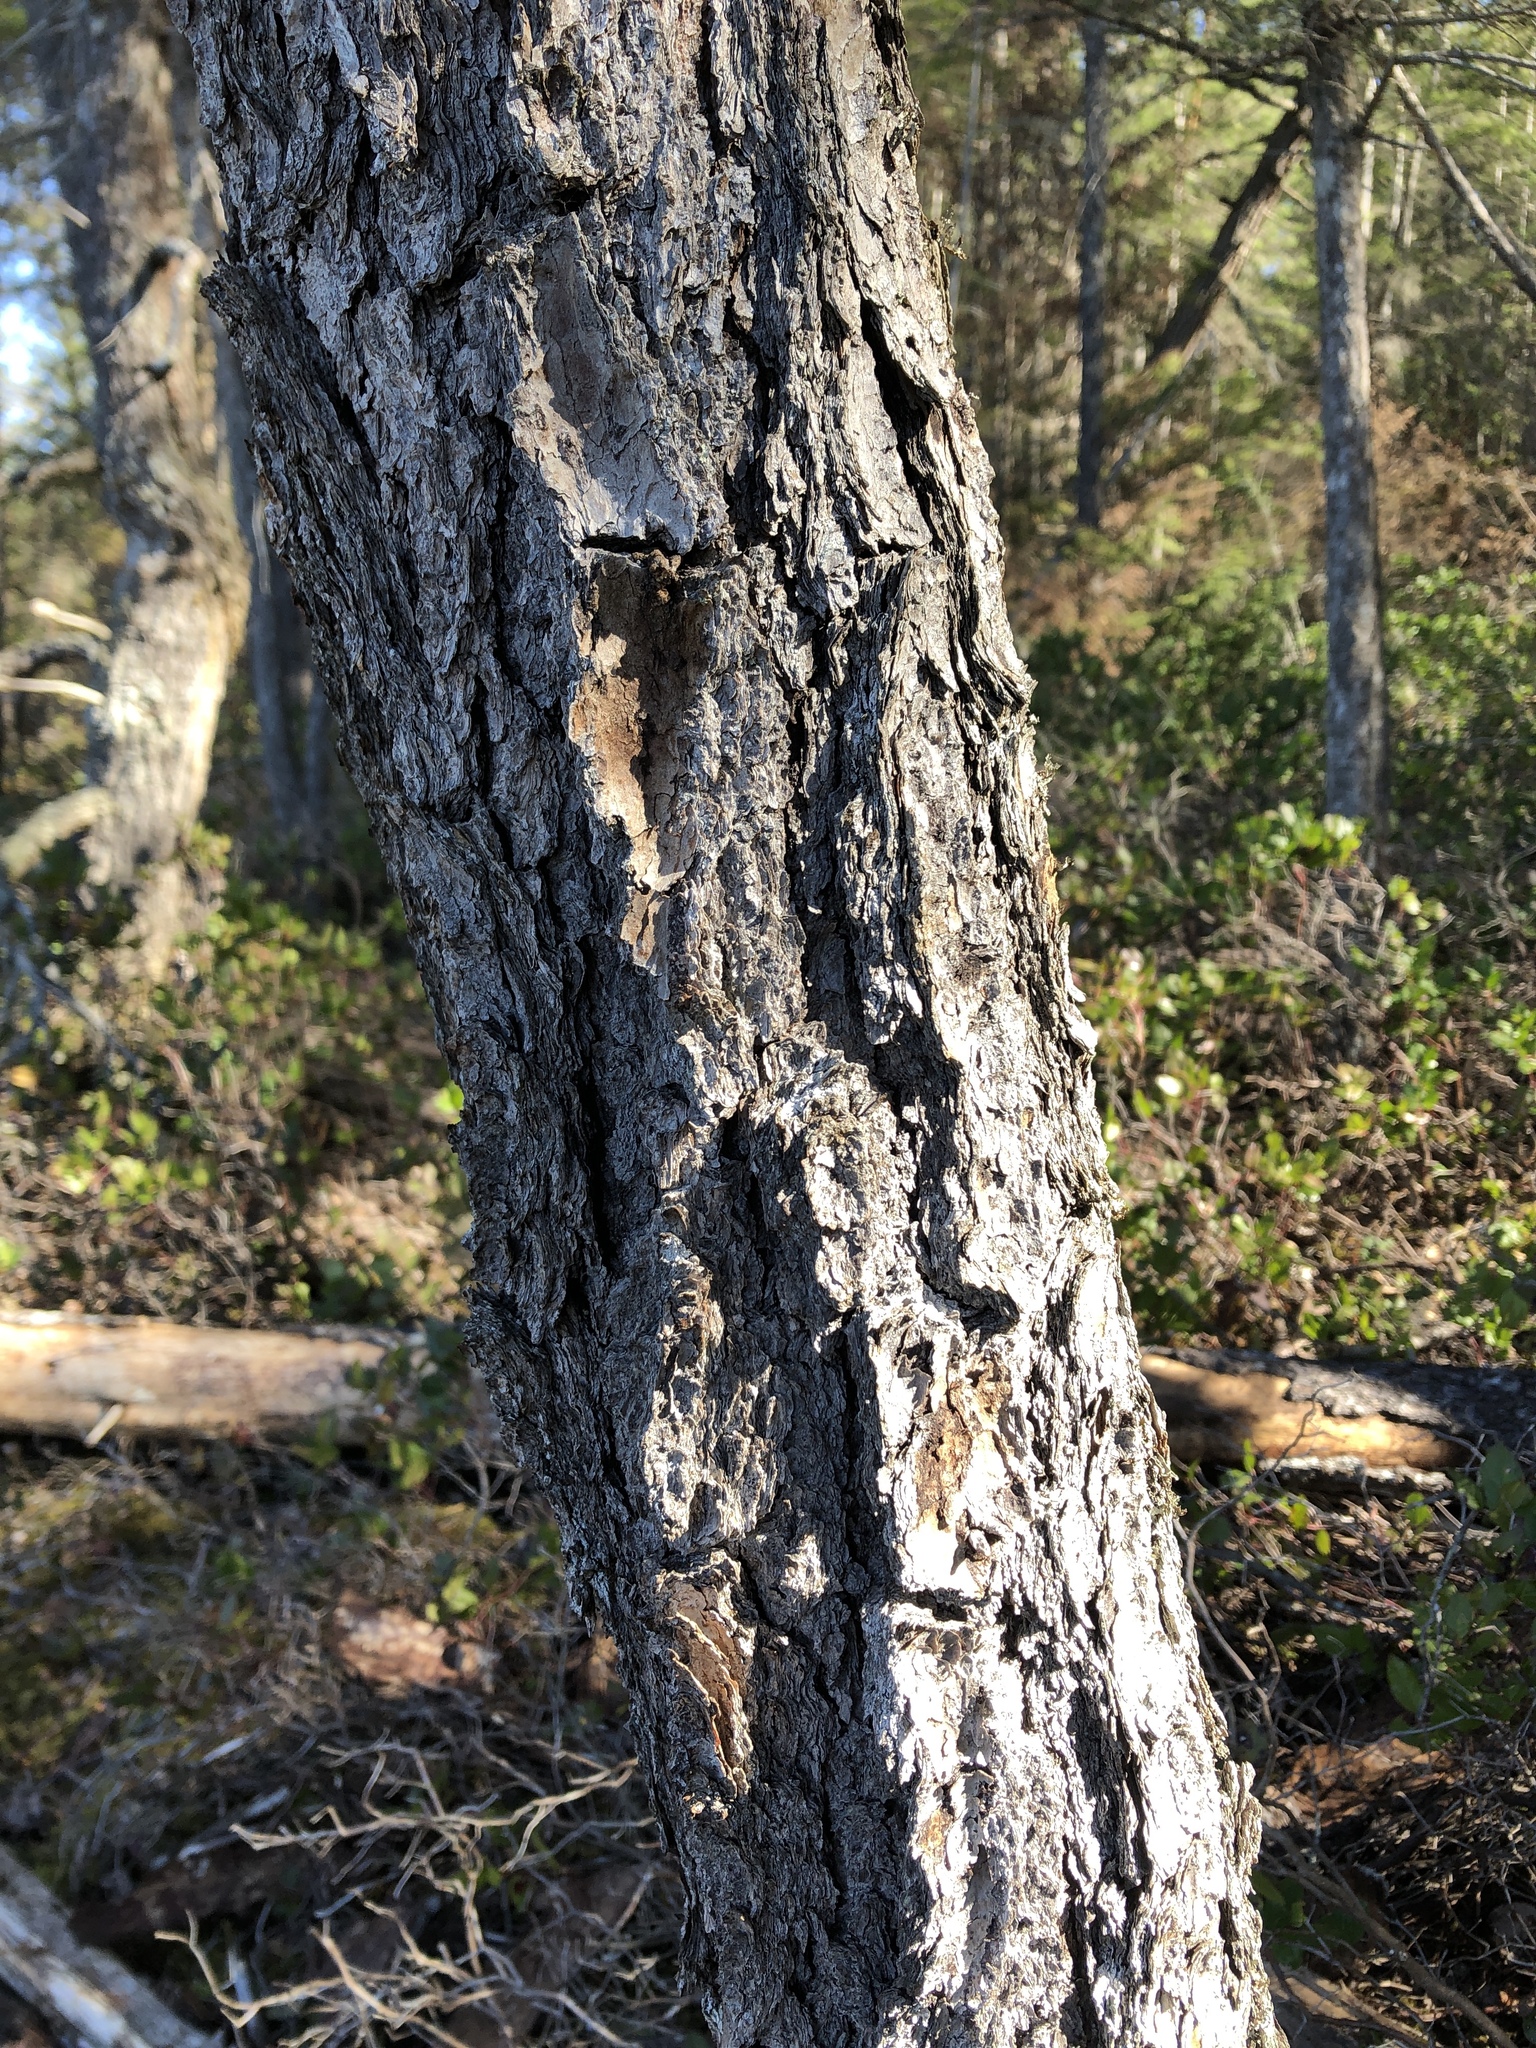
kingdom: Plantae
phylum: Tracheophyta
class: Pinopsida
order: Pinales
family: Pinaceae
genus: Pinus
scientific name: Pinus contorta
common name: Lodgepole pine
